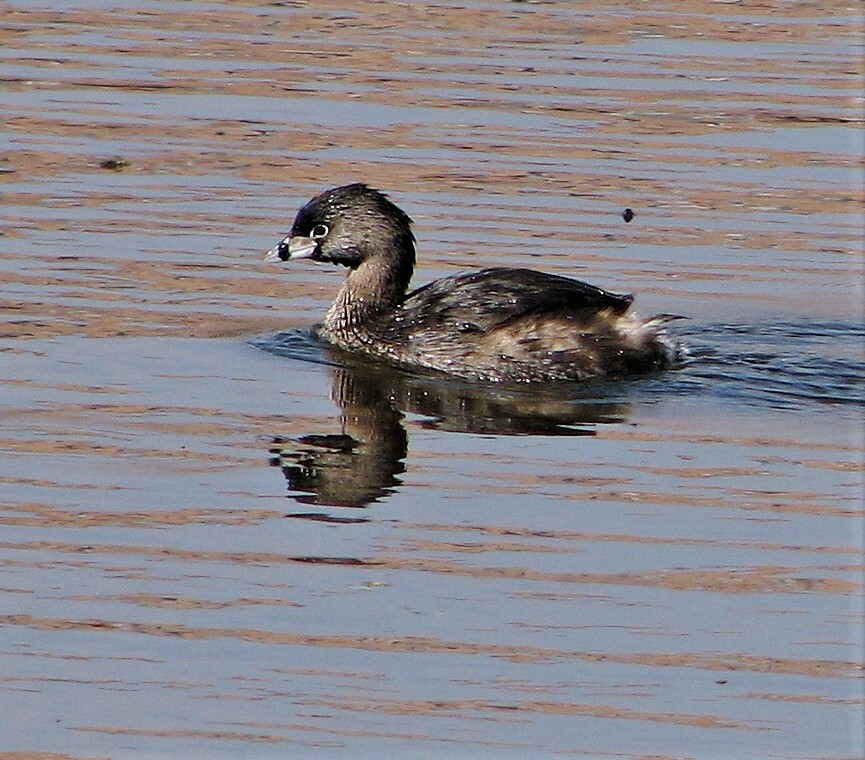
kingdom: Animalia
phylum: Chordata
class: Aves
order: Podicipediformes
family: Podicipedidae
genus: Podilymbus
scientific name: Podilymbus podiceps
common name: Pied-billed grebe
